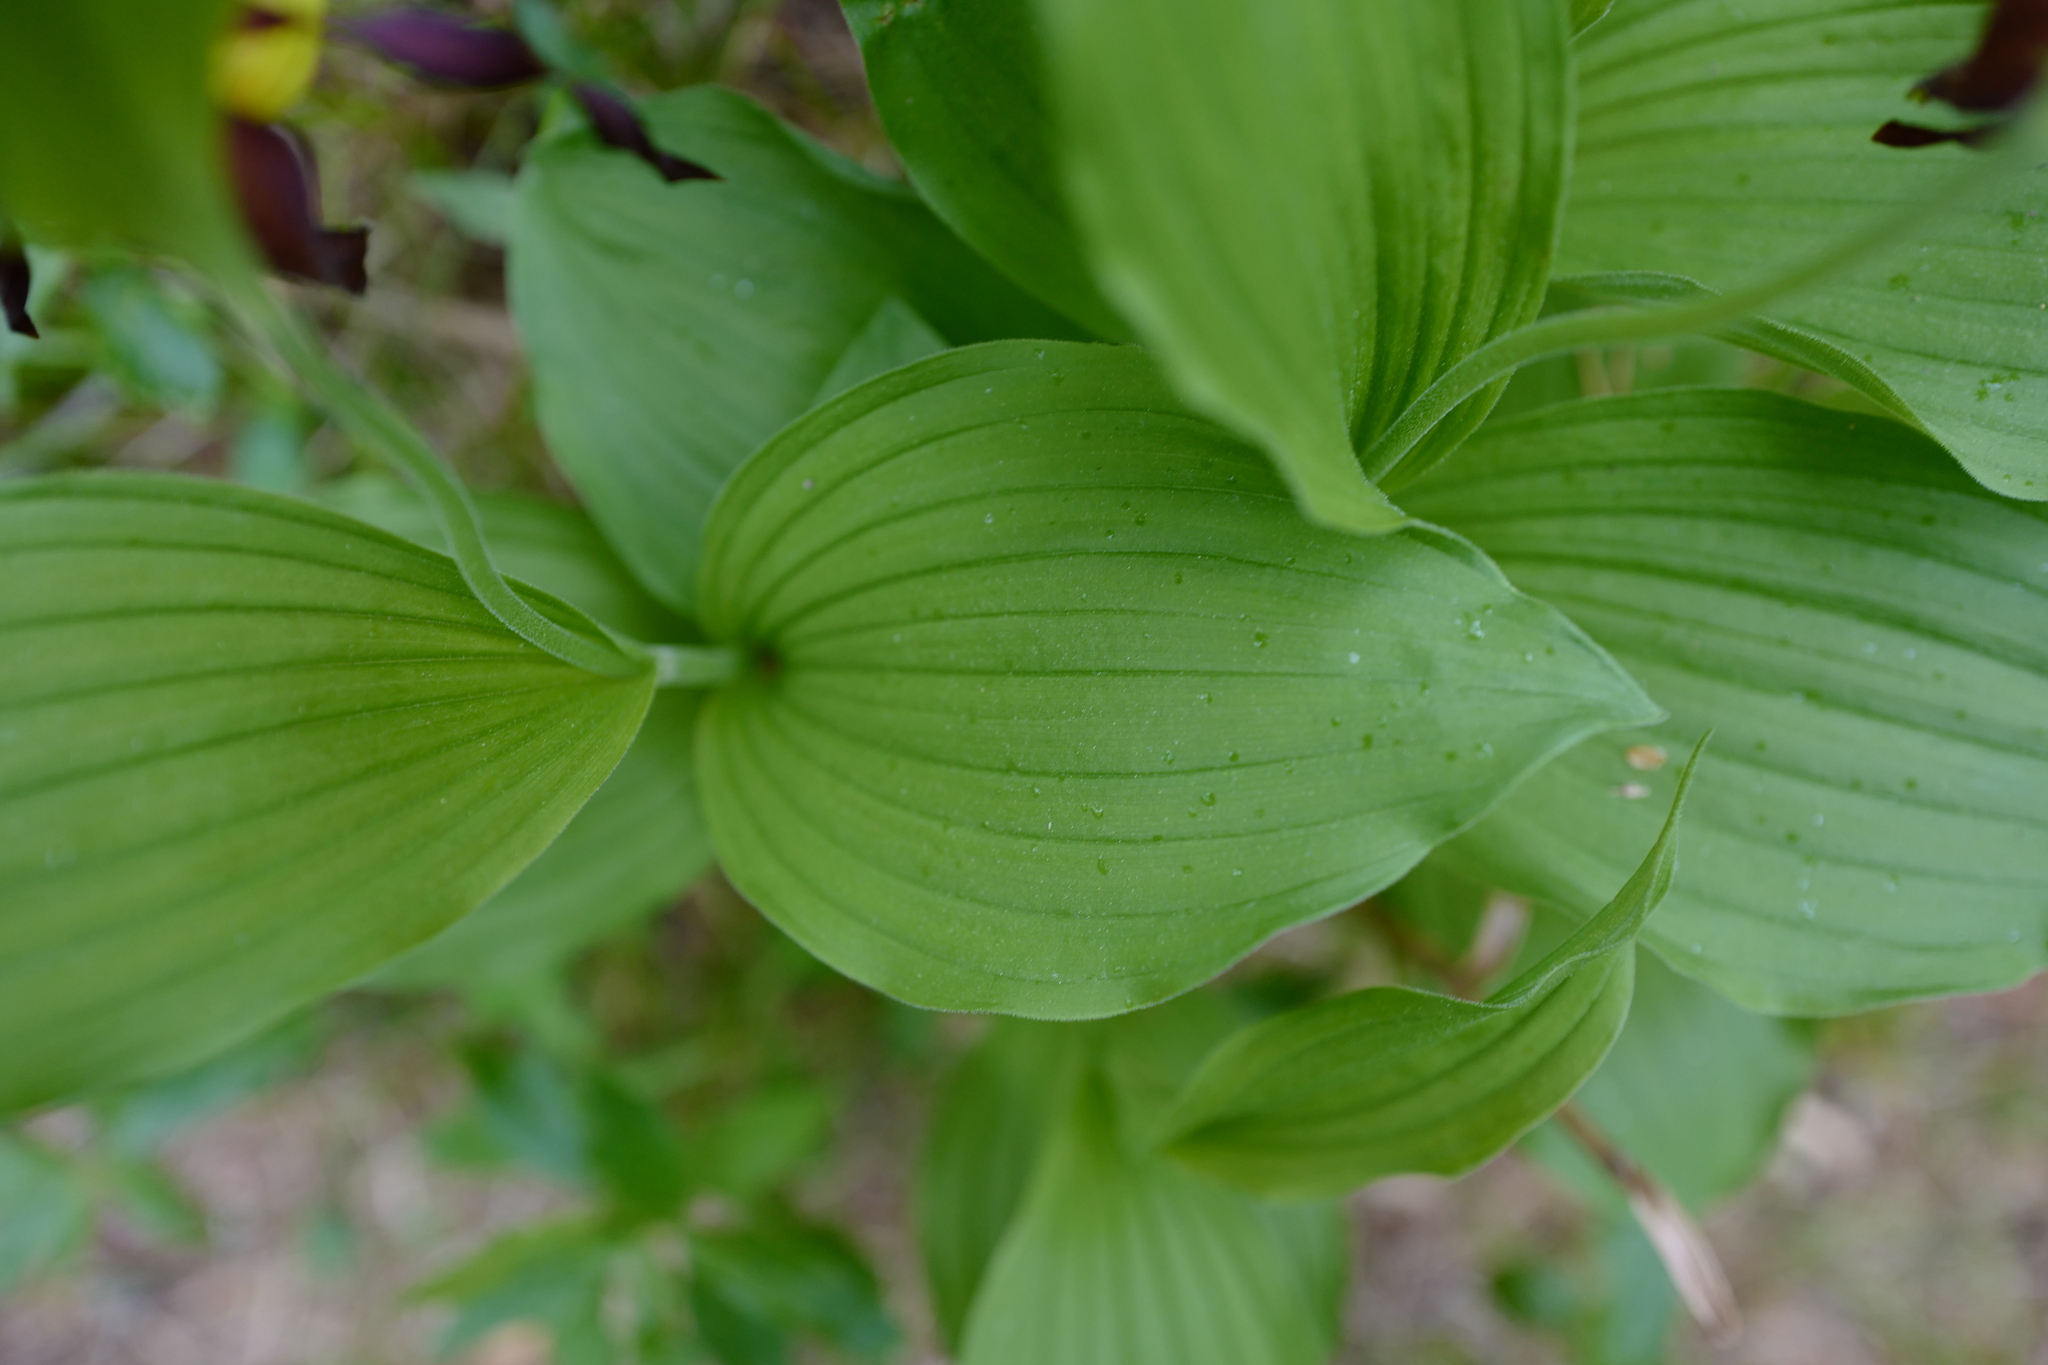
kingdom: Plantae
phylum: Tracheophyta
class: Liliopsida
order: Asparagales
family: Orchidaceae
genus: Cypripedium
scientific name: Cypripedium calceolus
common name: Lady's-slipper
